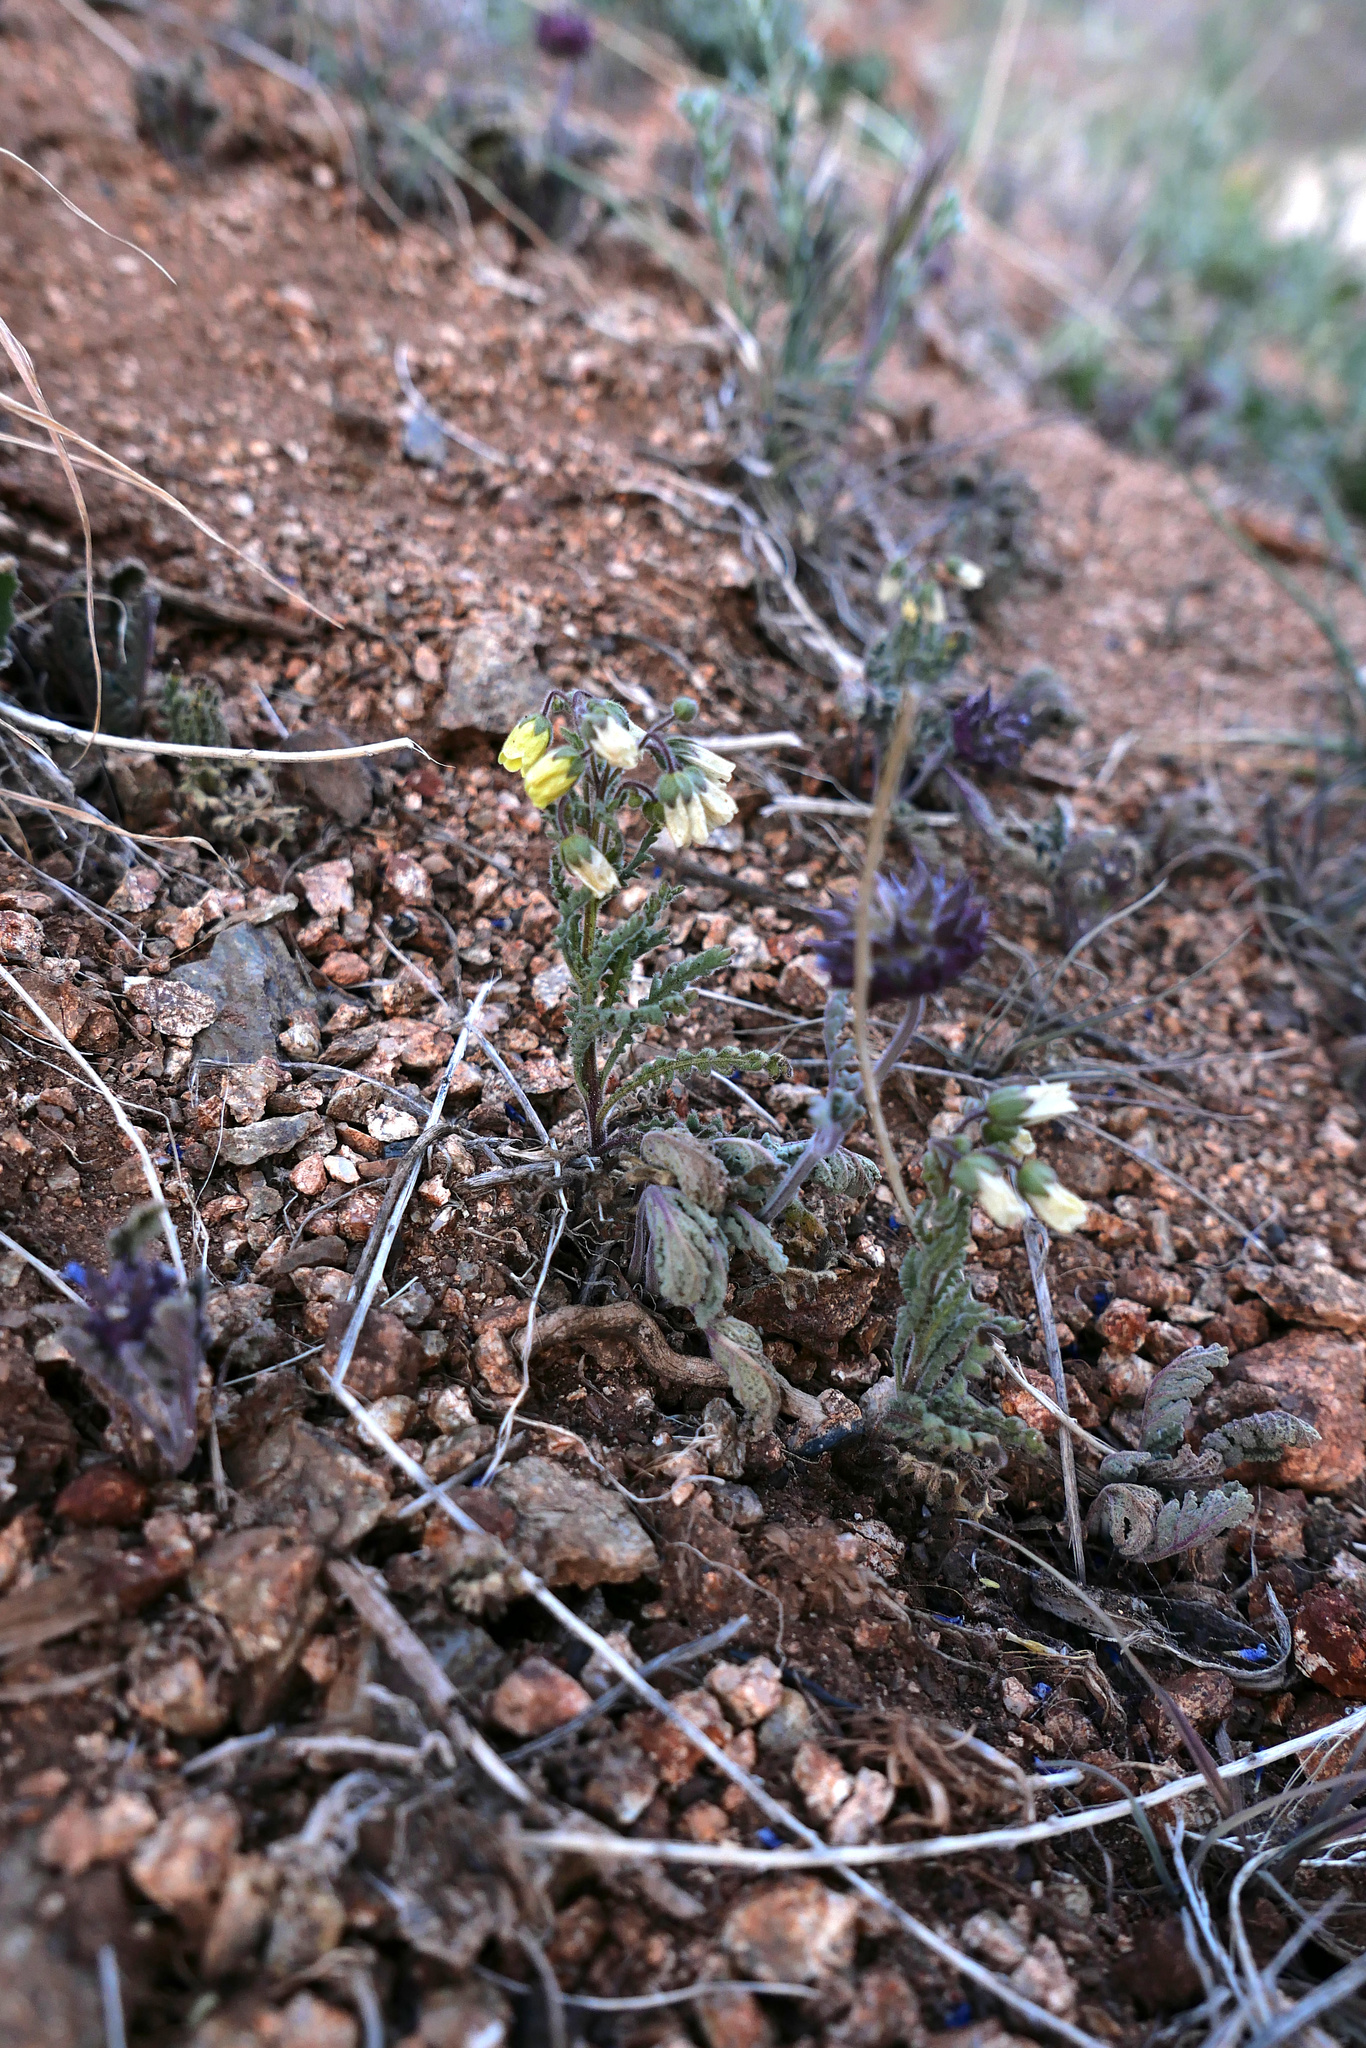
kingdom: Plantae
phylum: Tracheophyta
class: Magnoliopsida
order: Boraginales
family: Hydrophyllaceae
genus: Emmenanthe
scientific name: Emmenanthe penduliflora
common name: Whispering-bells
